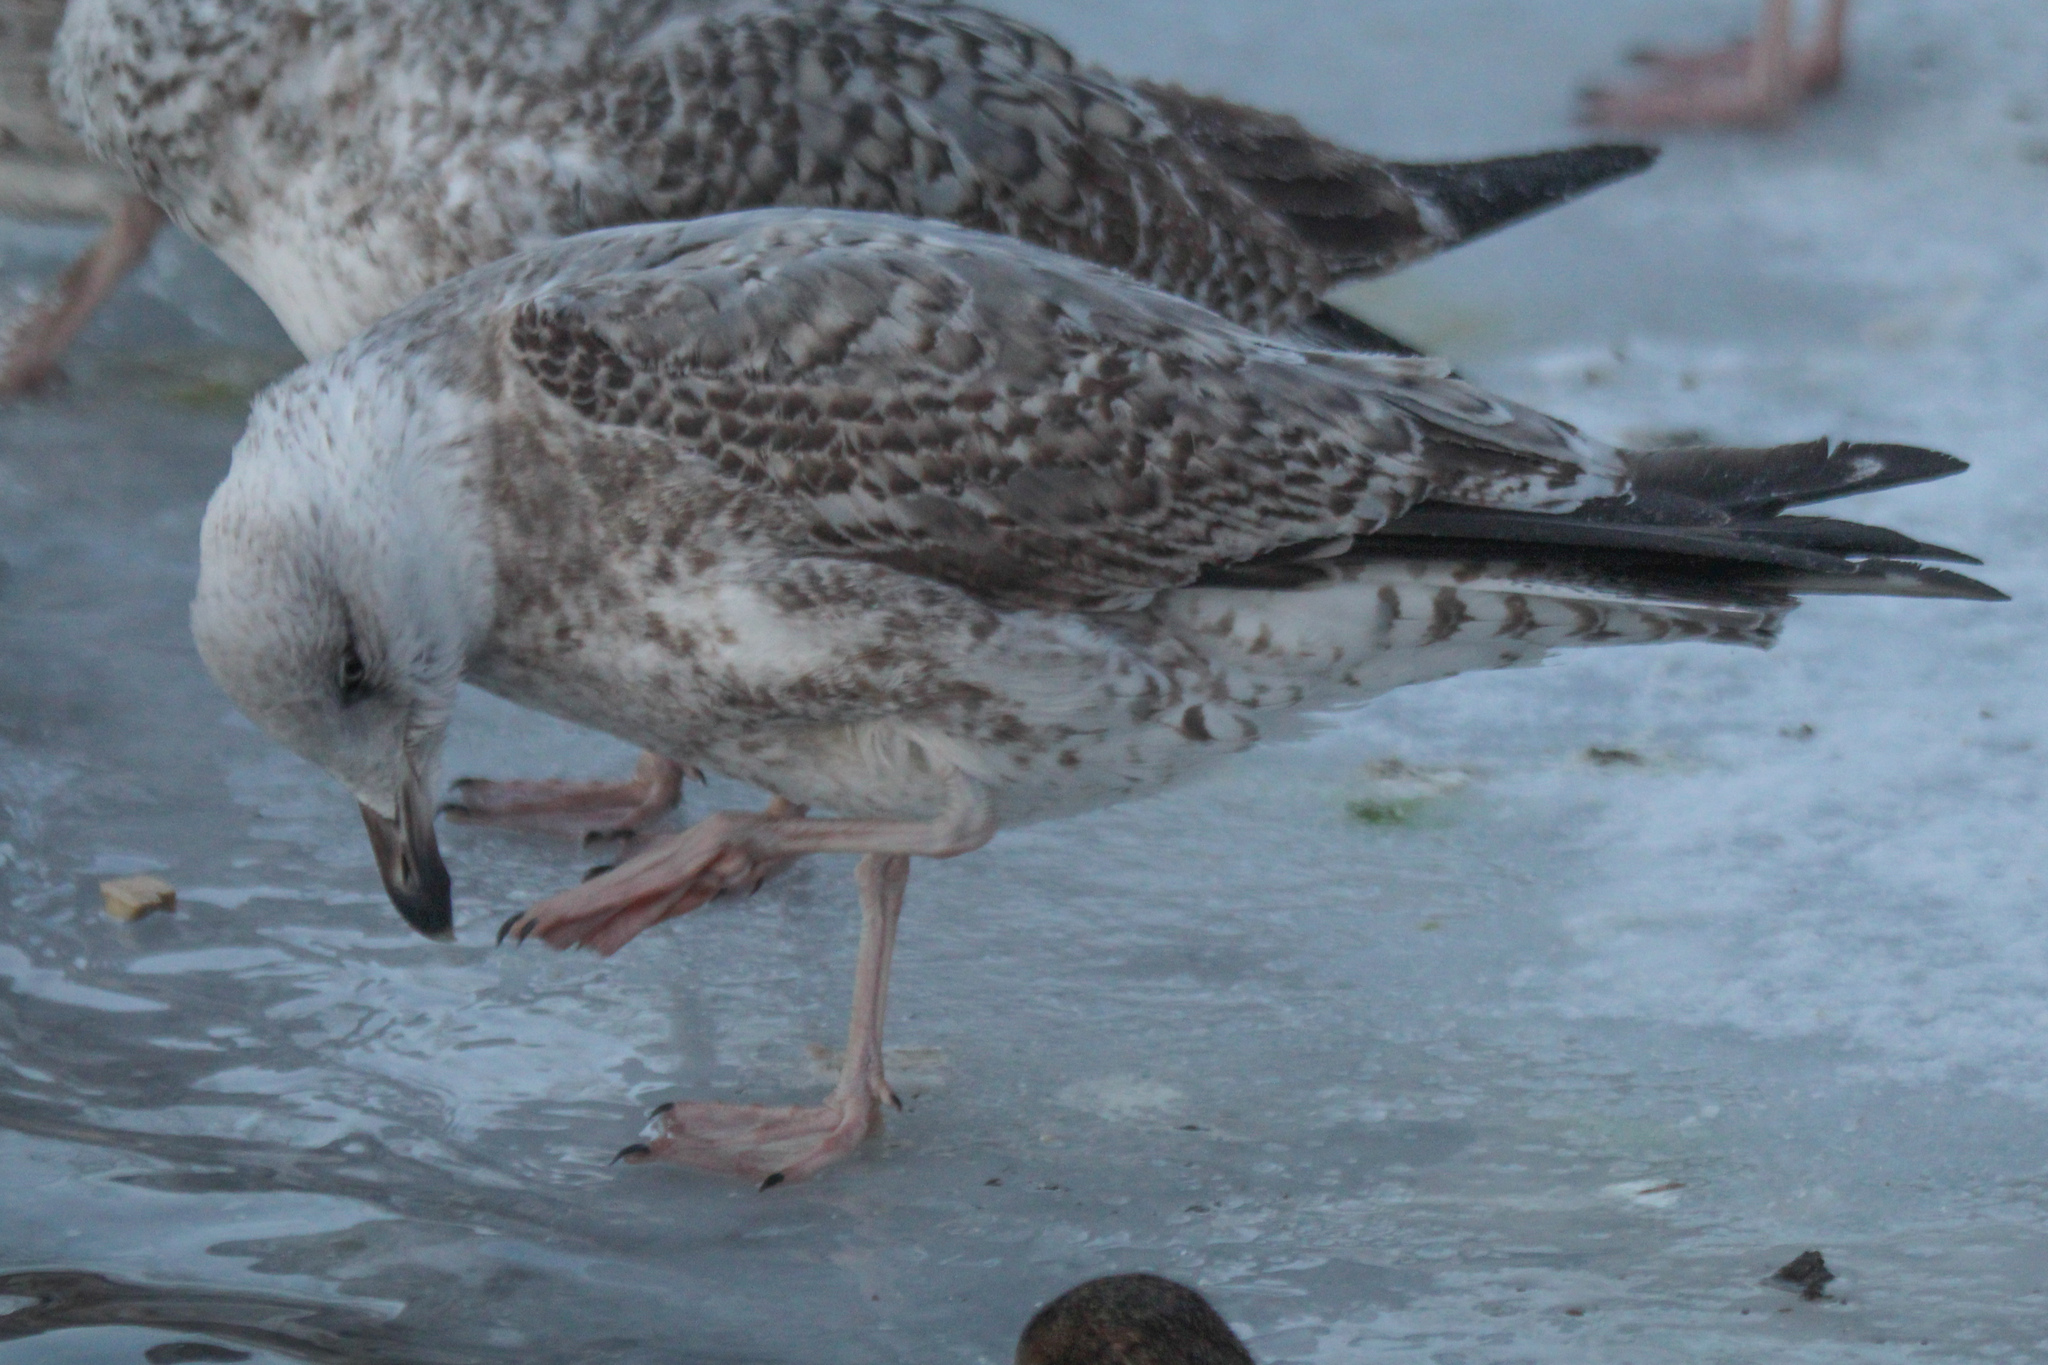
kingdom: Animalia
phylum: Chordata
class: Aves
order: Charadriiformes
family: Laridae
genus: Larus
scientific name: Larus argentatus
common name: Herring gull
